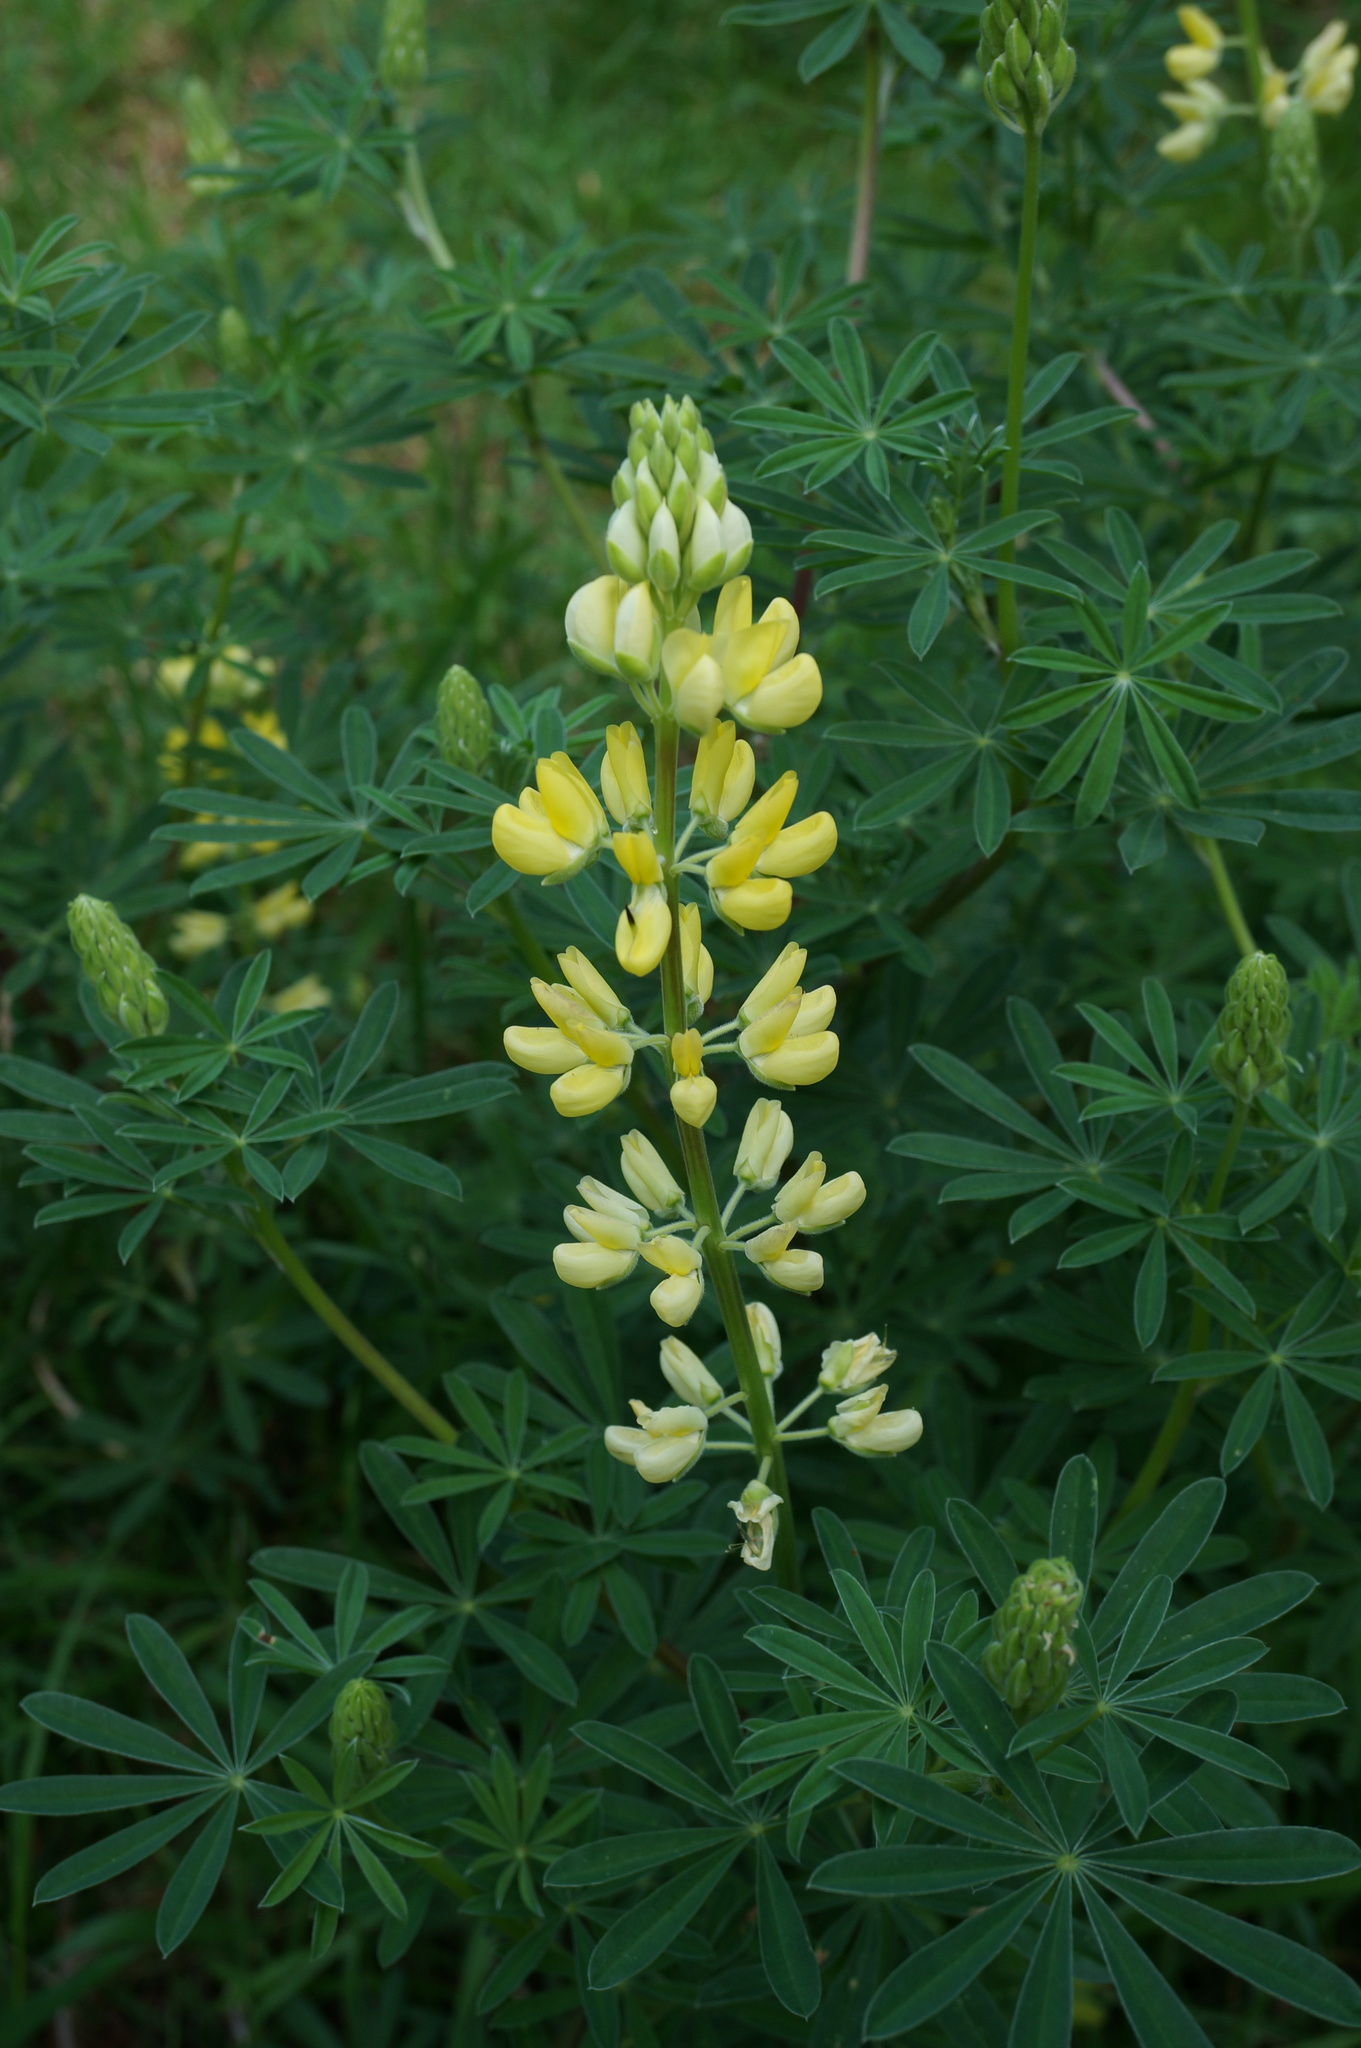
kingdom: Plantae
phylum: Tracheophyta
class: Magnoliopsida
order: Fabales
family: Fabaceae
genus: Lupinus
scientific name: Lupinus arboreus
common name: Yellow bush lupine
